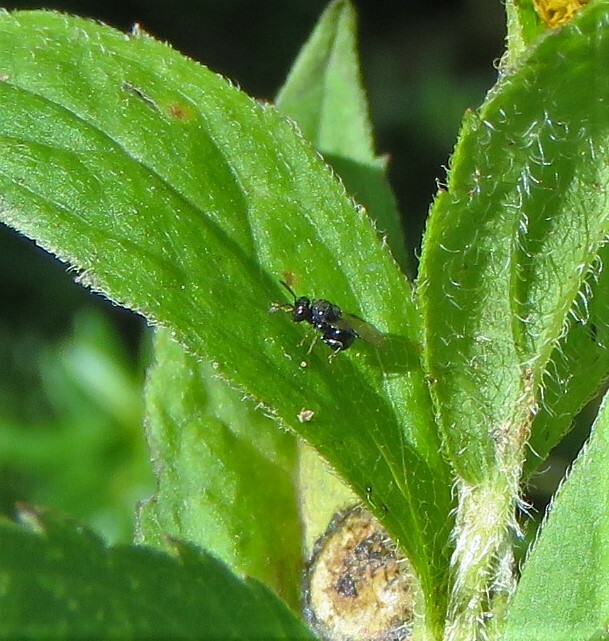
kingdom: Animalia
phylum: Arthropoda
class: Insecta
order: Hymenoptera
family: Perilampidae
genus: Perilampus
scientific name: Perilampus stygicus
